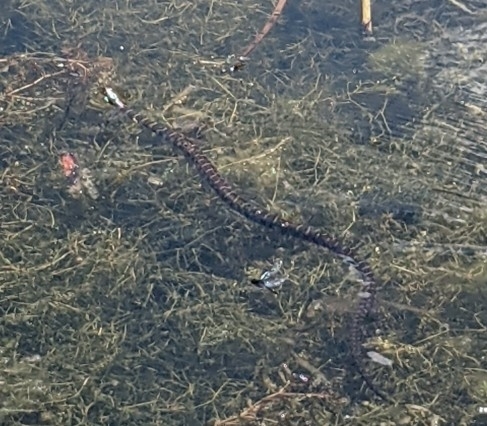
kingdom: Animalia
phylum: Chordata
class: Squamata
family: Colubridae
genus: Nerodia
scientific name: Nerodia sipedon
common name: Northern water snake
